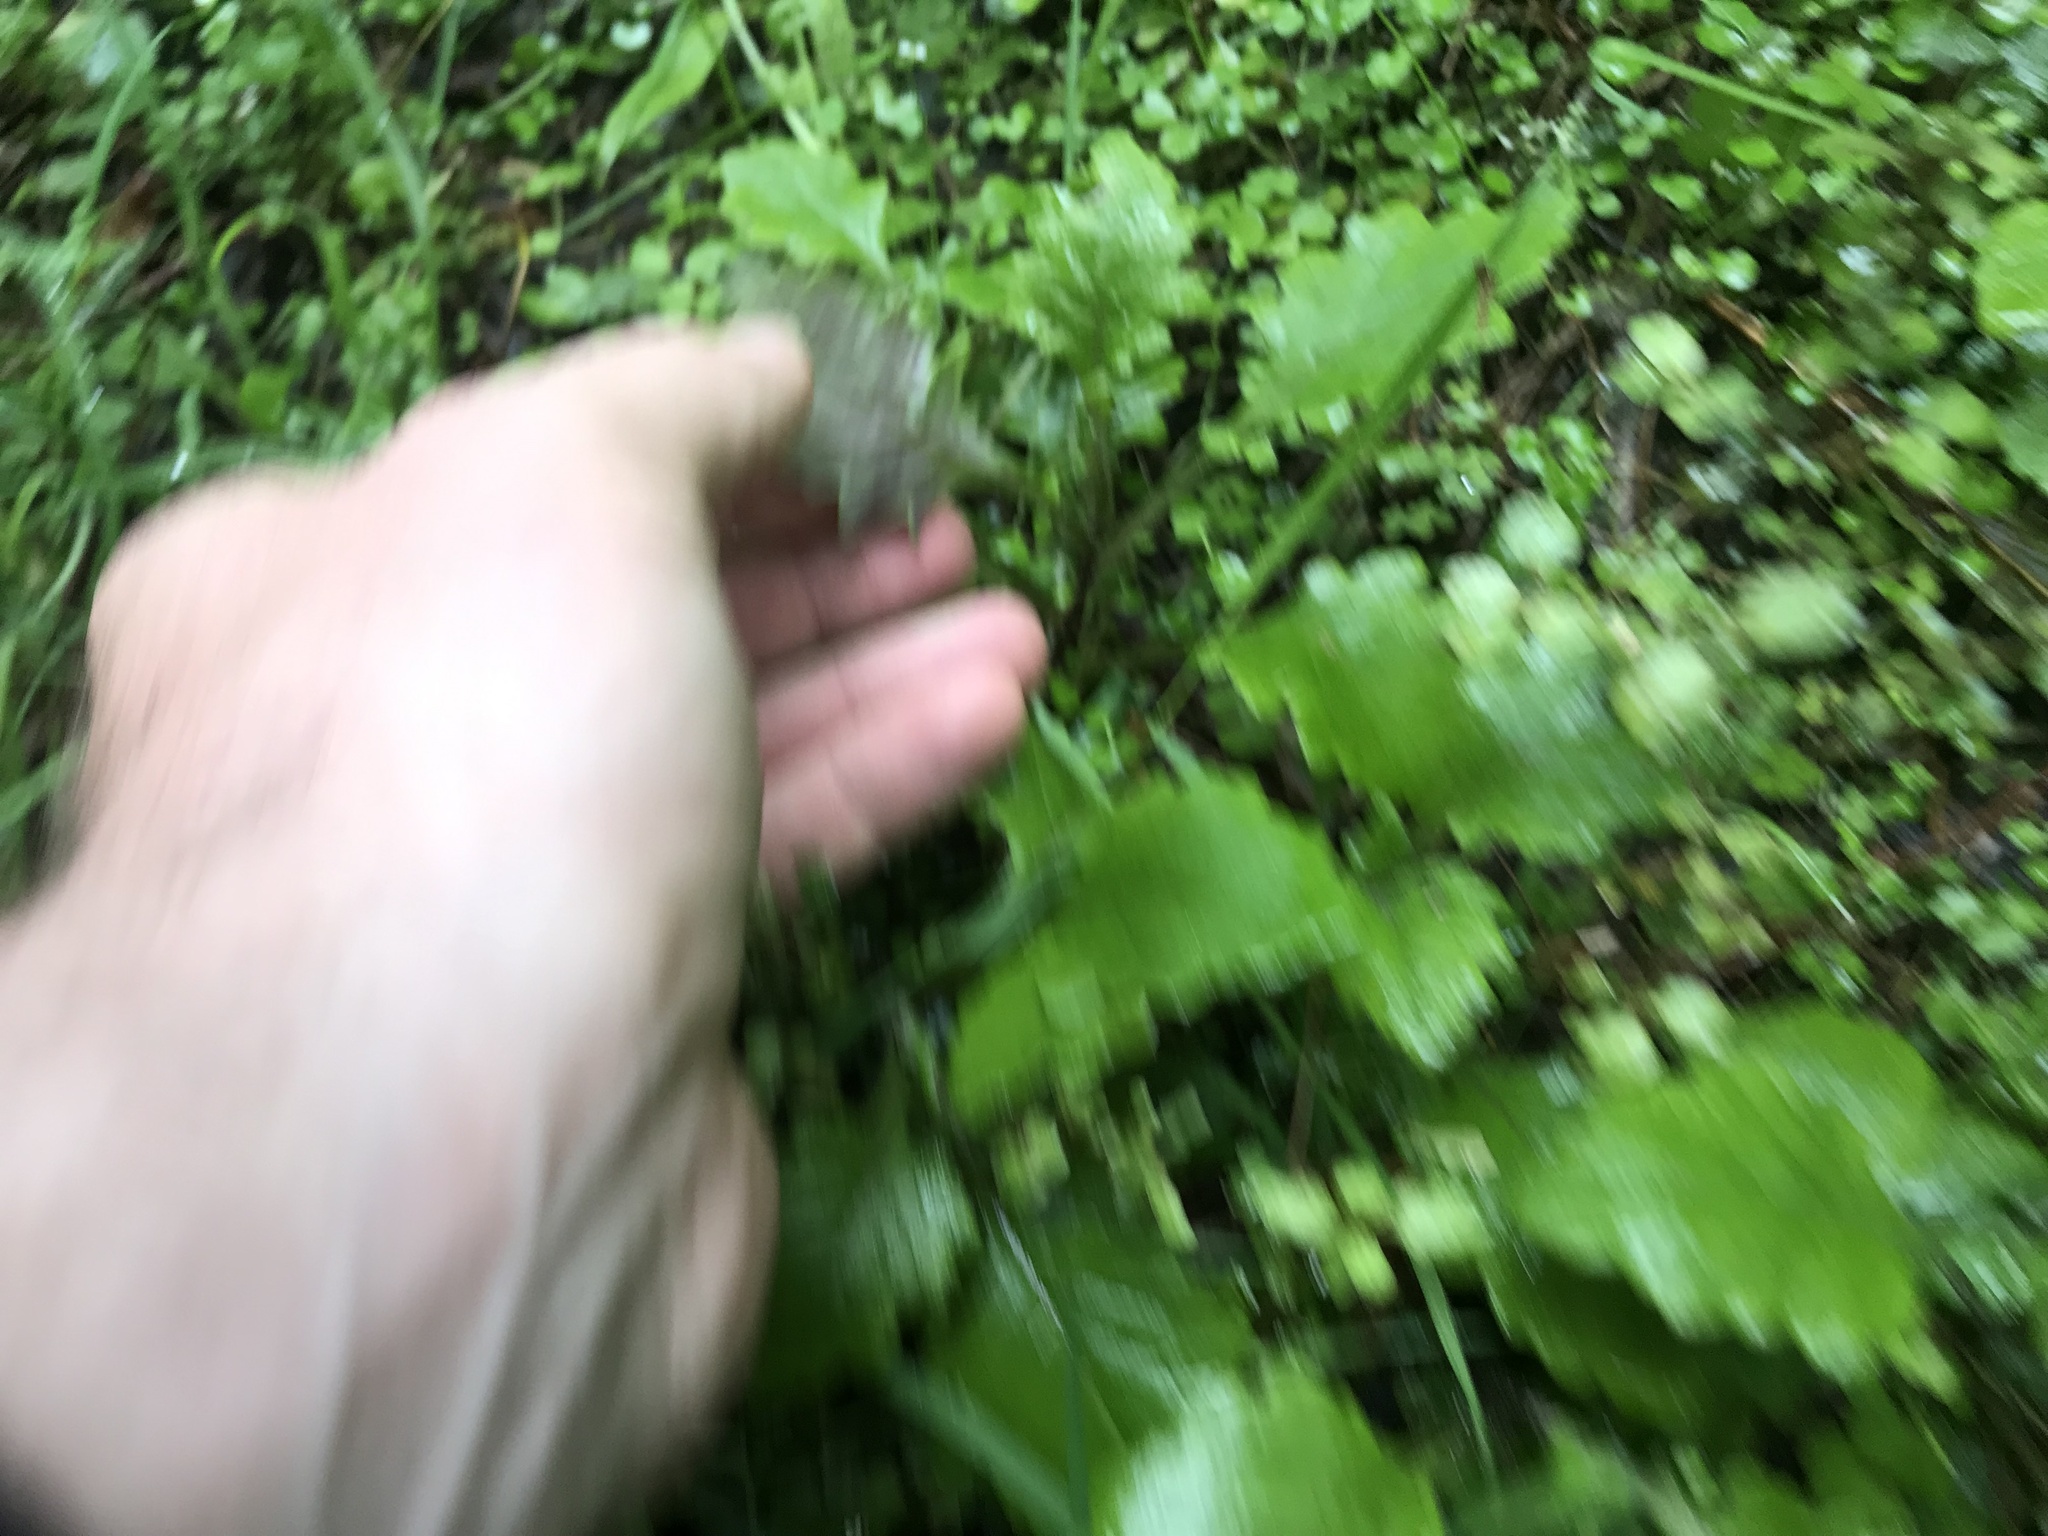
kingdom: Plantae
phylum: Tracheophyta
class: Magnoliopsida
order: Asterales
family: Asteraceae
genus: Senecio
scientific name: Senecio rufiglandulosus
